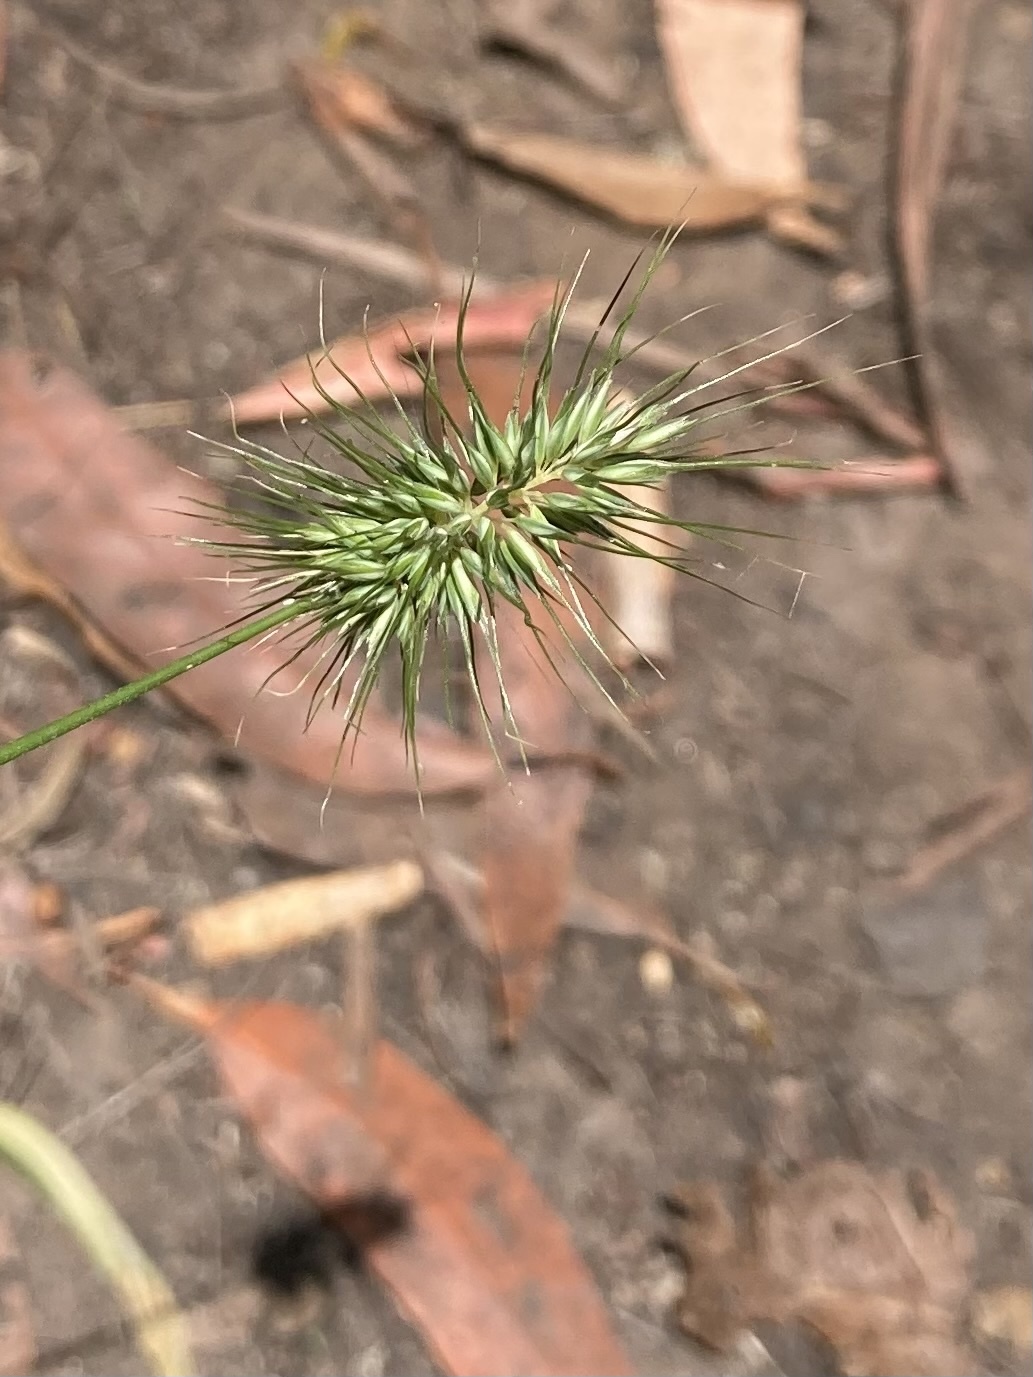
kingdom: Plantae
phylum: Tracheophyta
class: Liliopsida
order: Poales
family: Poaceae
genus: Echinopogon
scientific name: Echinopogon ovatus
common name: Hedgehog-grass
